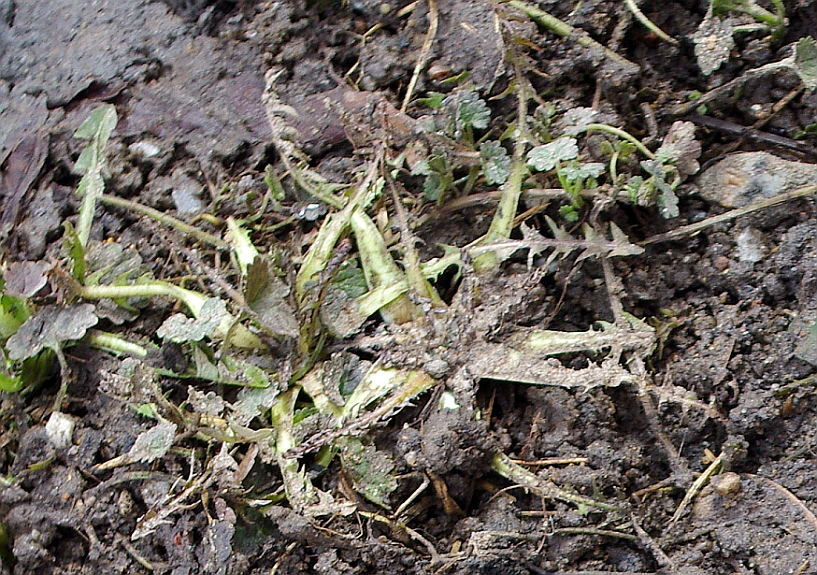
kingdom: Plantae
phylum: Tracheophyta
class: Magnoliopsida
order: Asterales
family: Asteraceae
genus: Taraxacum
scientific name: Taraxacum officinale
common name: Common dandelion
